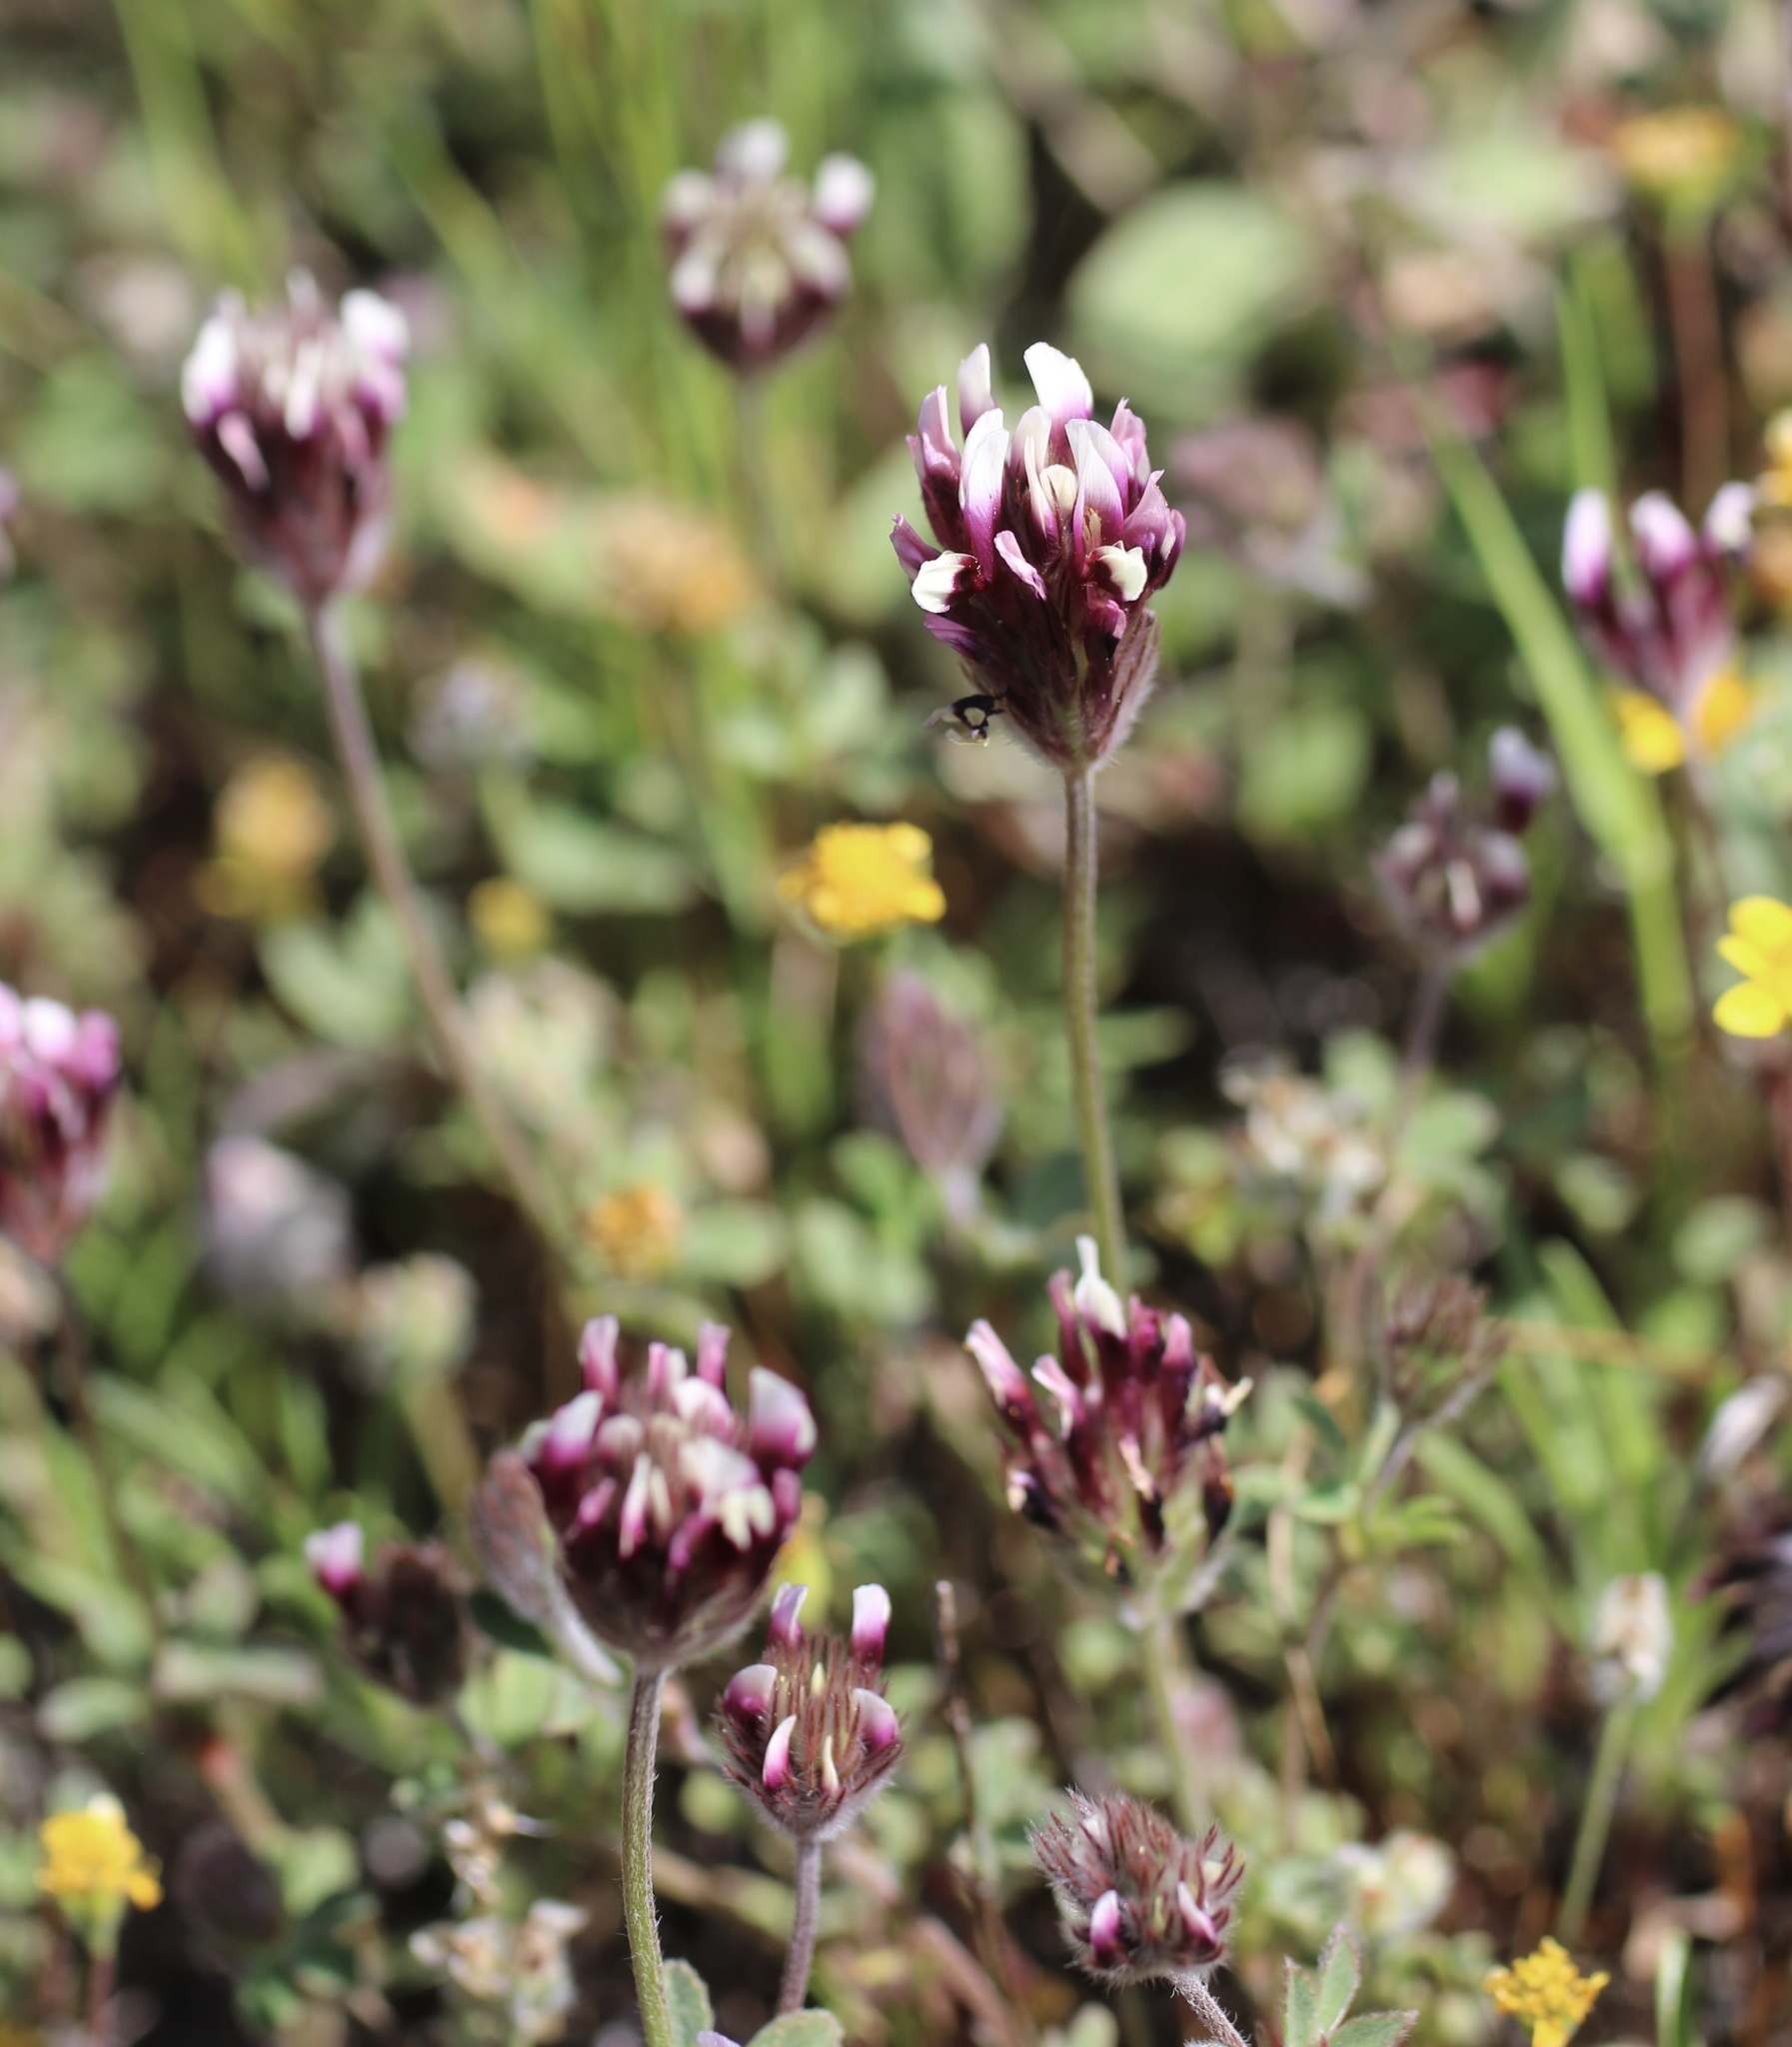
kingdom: Plantae
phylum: Tracheophyta
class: Magnoliopsida
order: Fabales
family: Fabaceae
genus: Trifolium
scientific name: Trifolium dichotomum
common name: Branched indian clover
